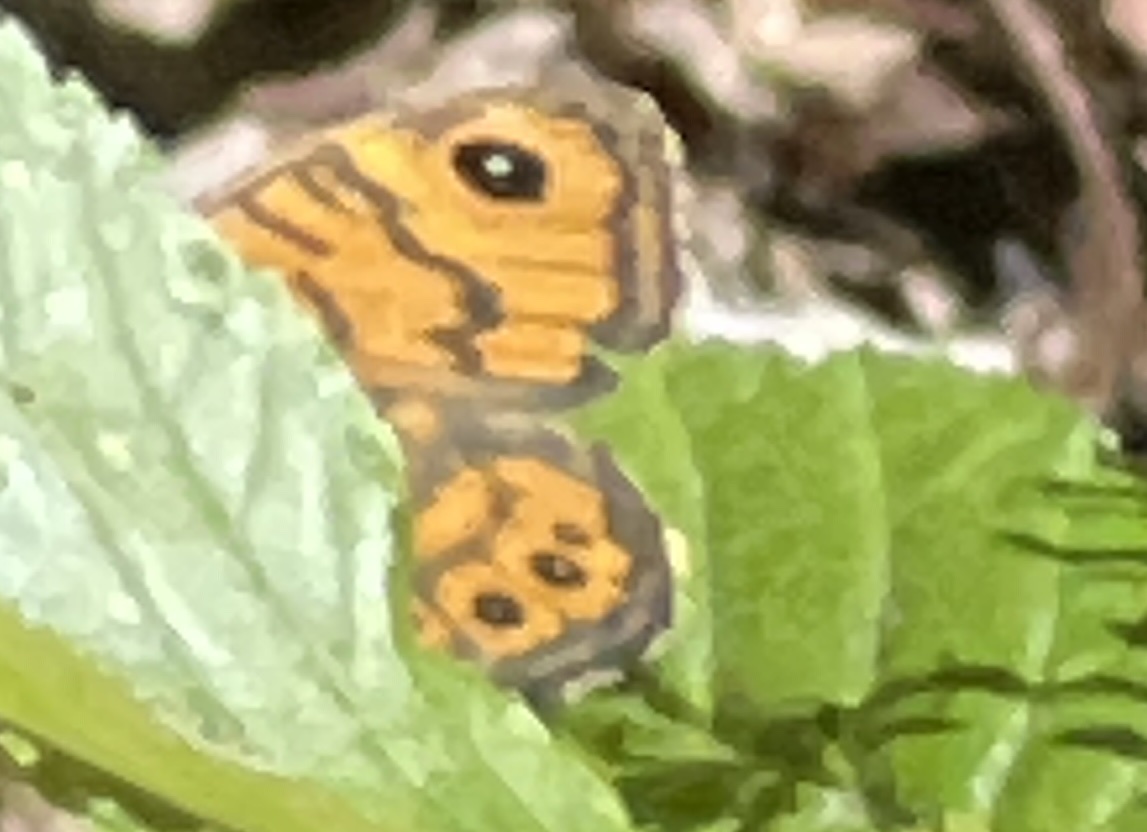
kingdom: Animalia
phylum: Arthropoda
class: Insecta
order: Lepidoptera
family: Nymphalidae
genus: Pararge
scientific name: Pararge Lasiommata megera
